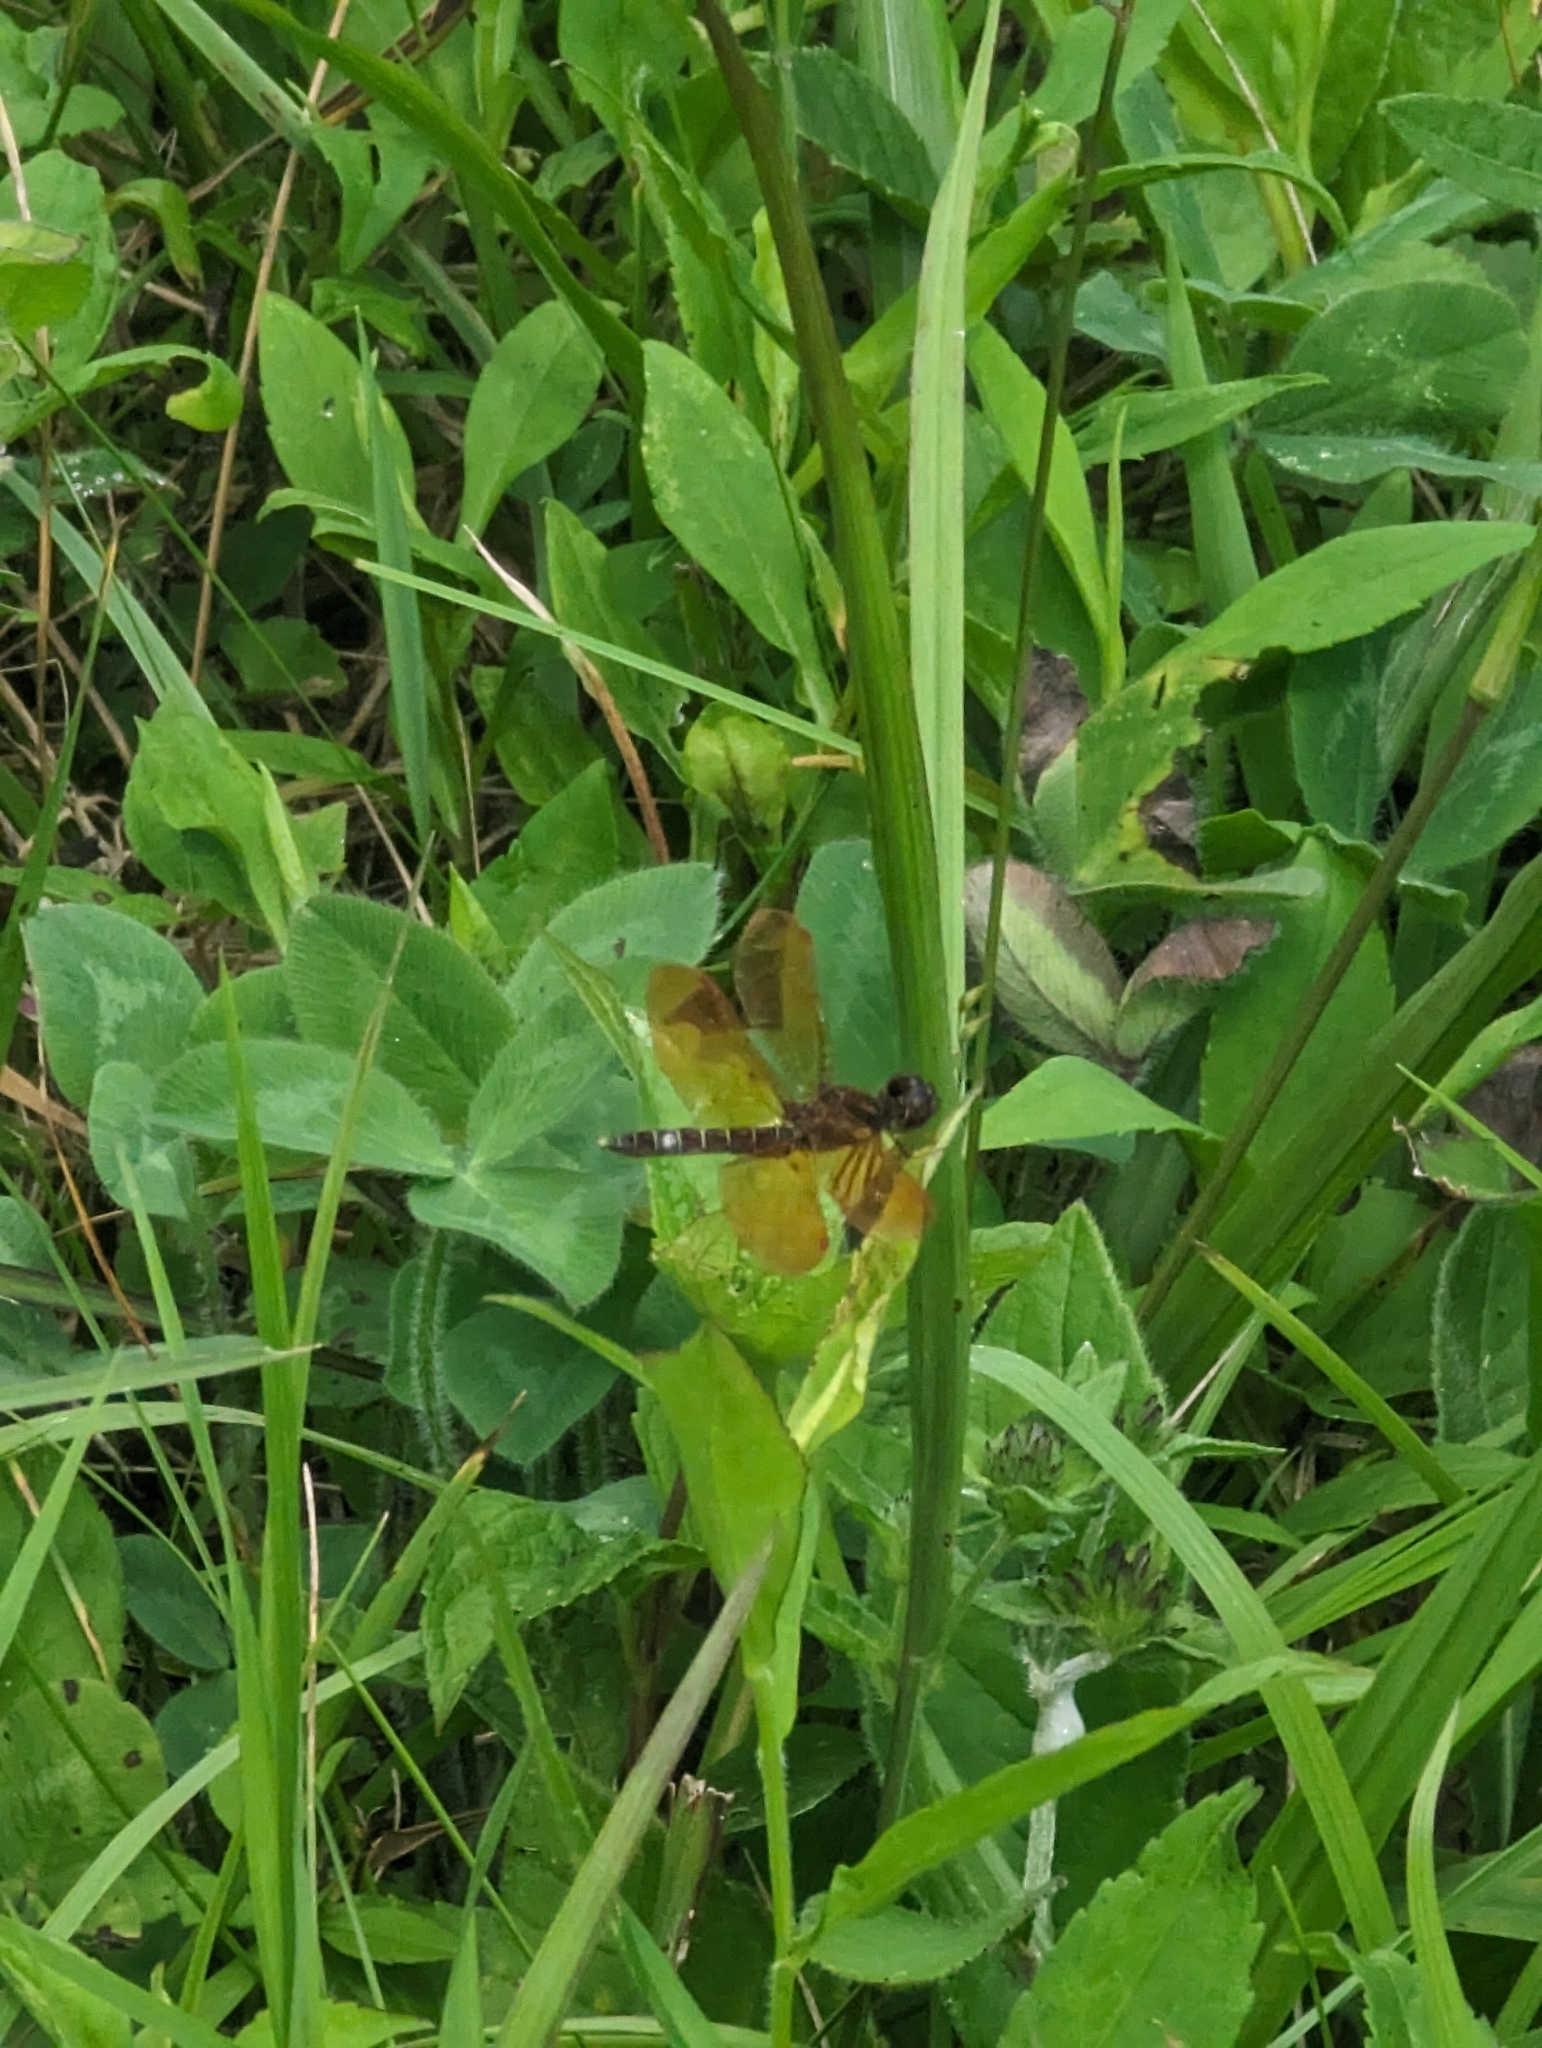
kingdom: Animalia
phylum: Arthropoda
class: Insecta
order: Odonata
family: Libellulidae
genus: Perithemis
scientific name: Perithemis tenera
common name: Eastern amberwing
